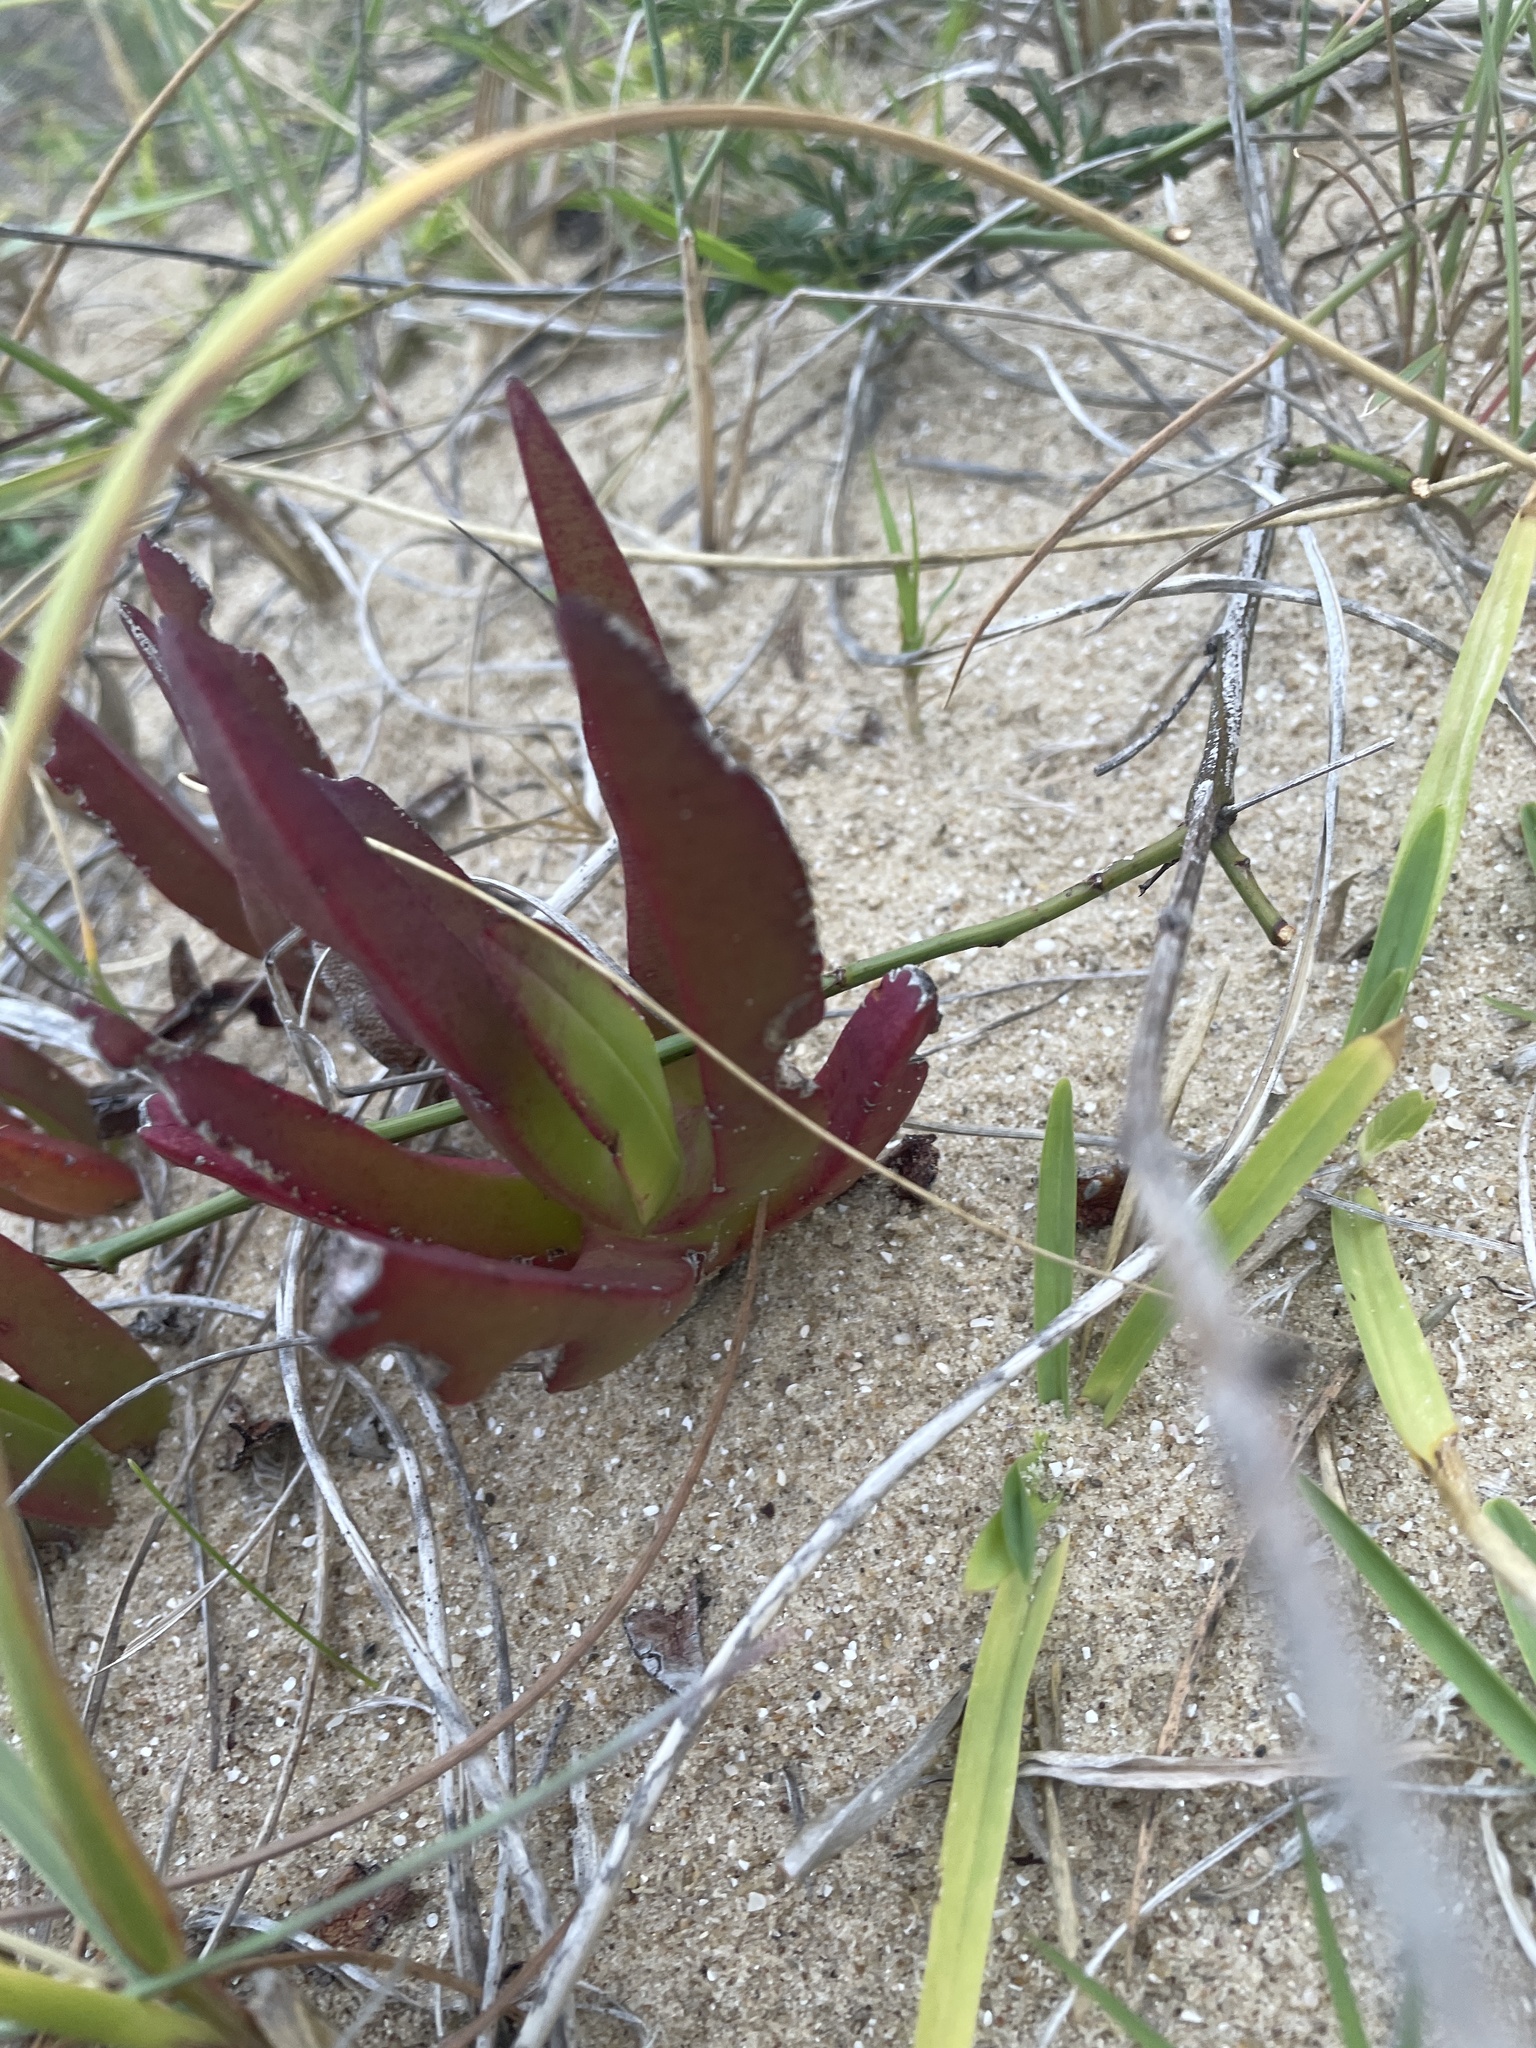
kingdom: Plantae
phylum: Tracheophyta
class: Magnoliopsida
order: Caryophyllales
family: Aizoaceae
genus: Carpobrotus
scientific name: Carpobrotus edulis
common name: Hottentot-fig
